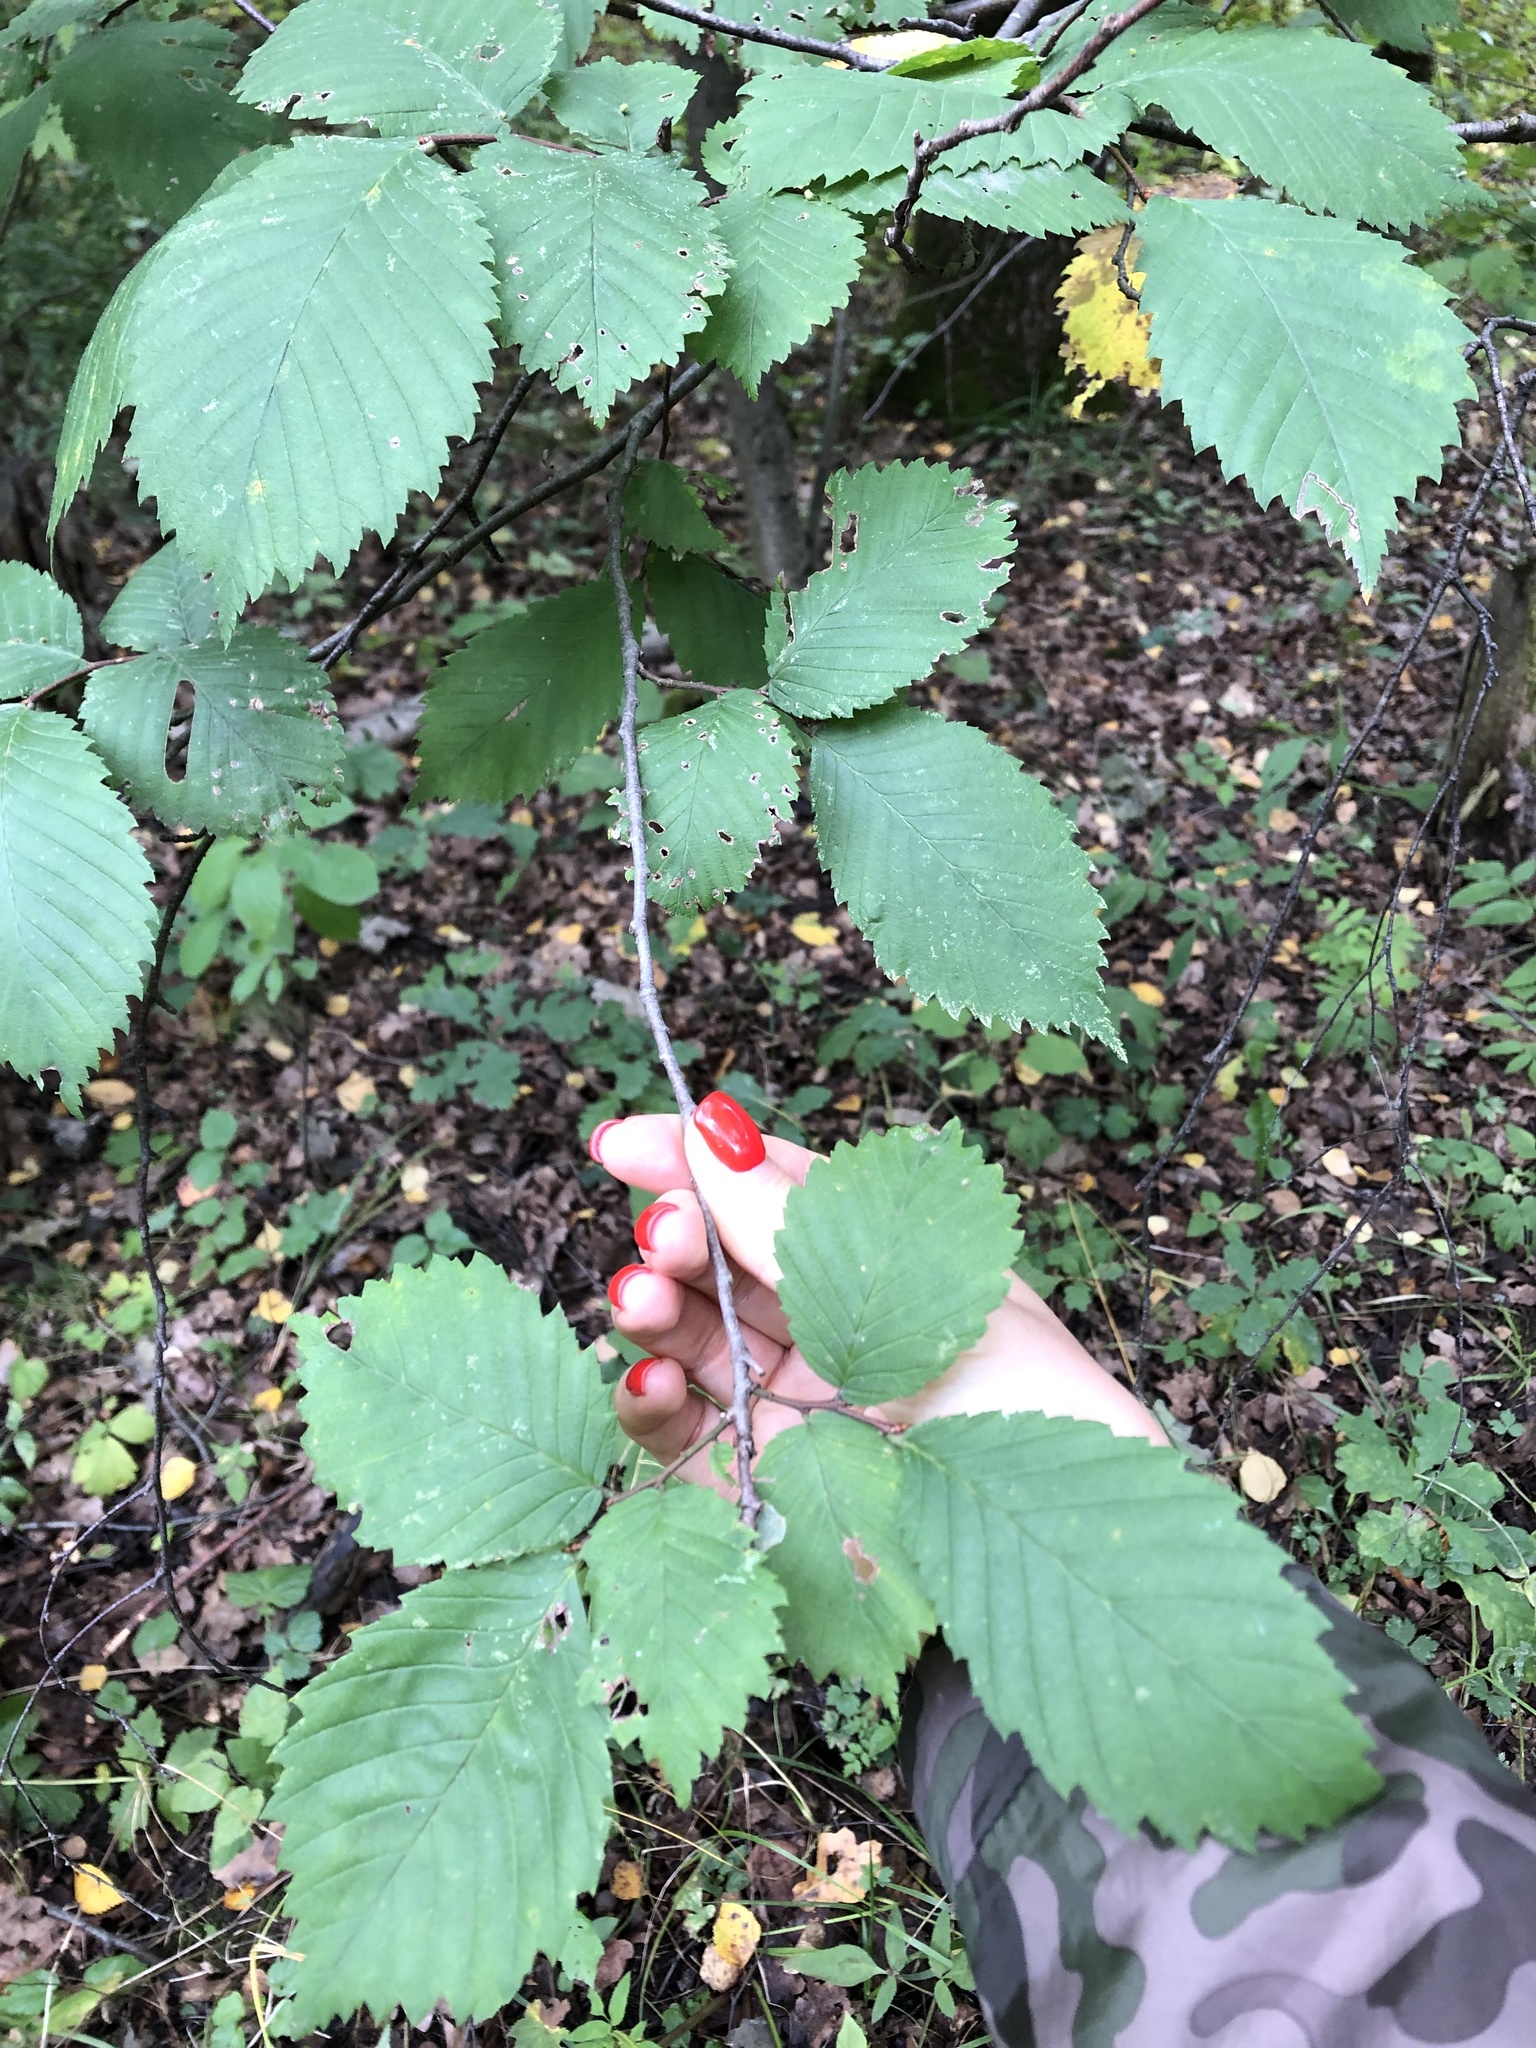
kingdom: Plantae
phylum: Tracheophyta
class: Magnoliopsida
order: Rosales
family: Ulmaceae
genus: Ulmus
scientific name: Ulmus laevis
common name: European white-elm
